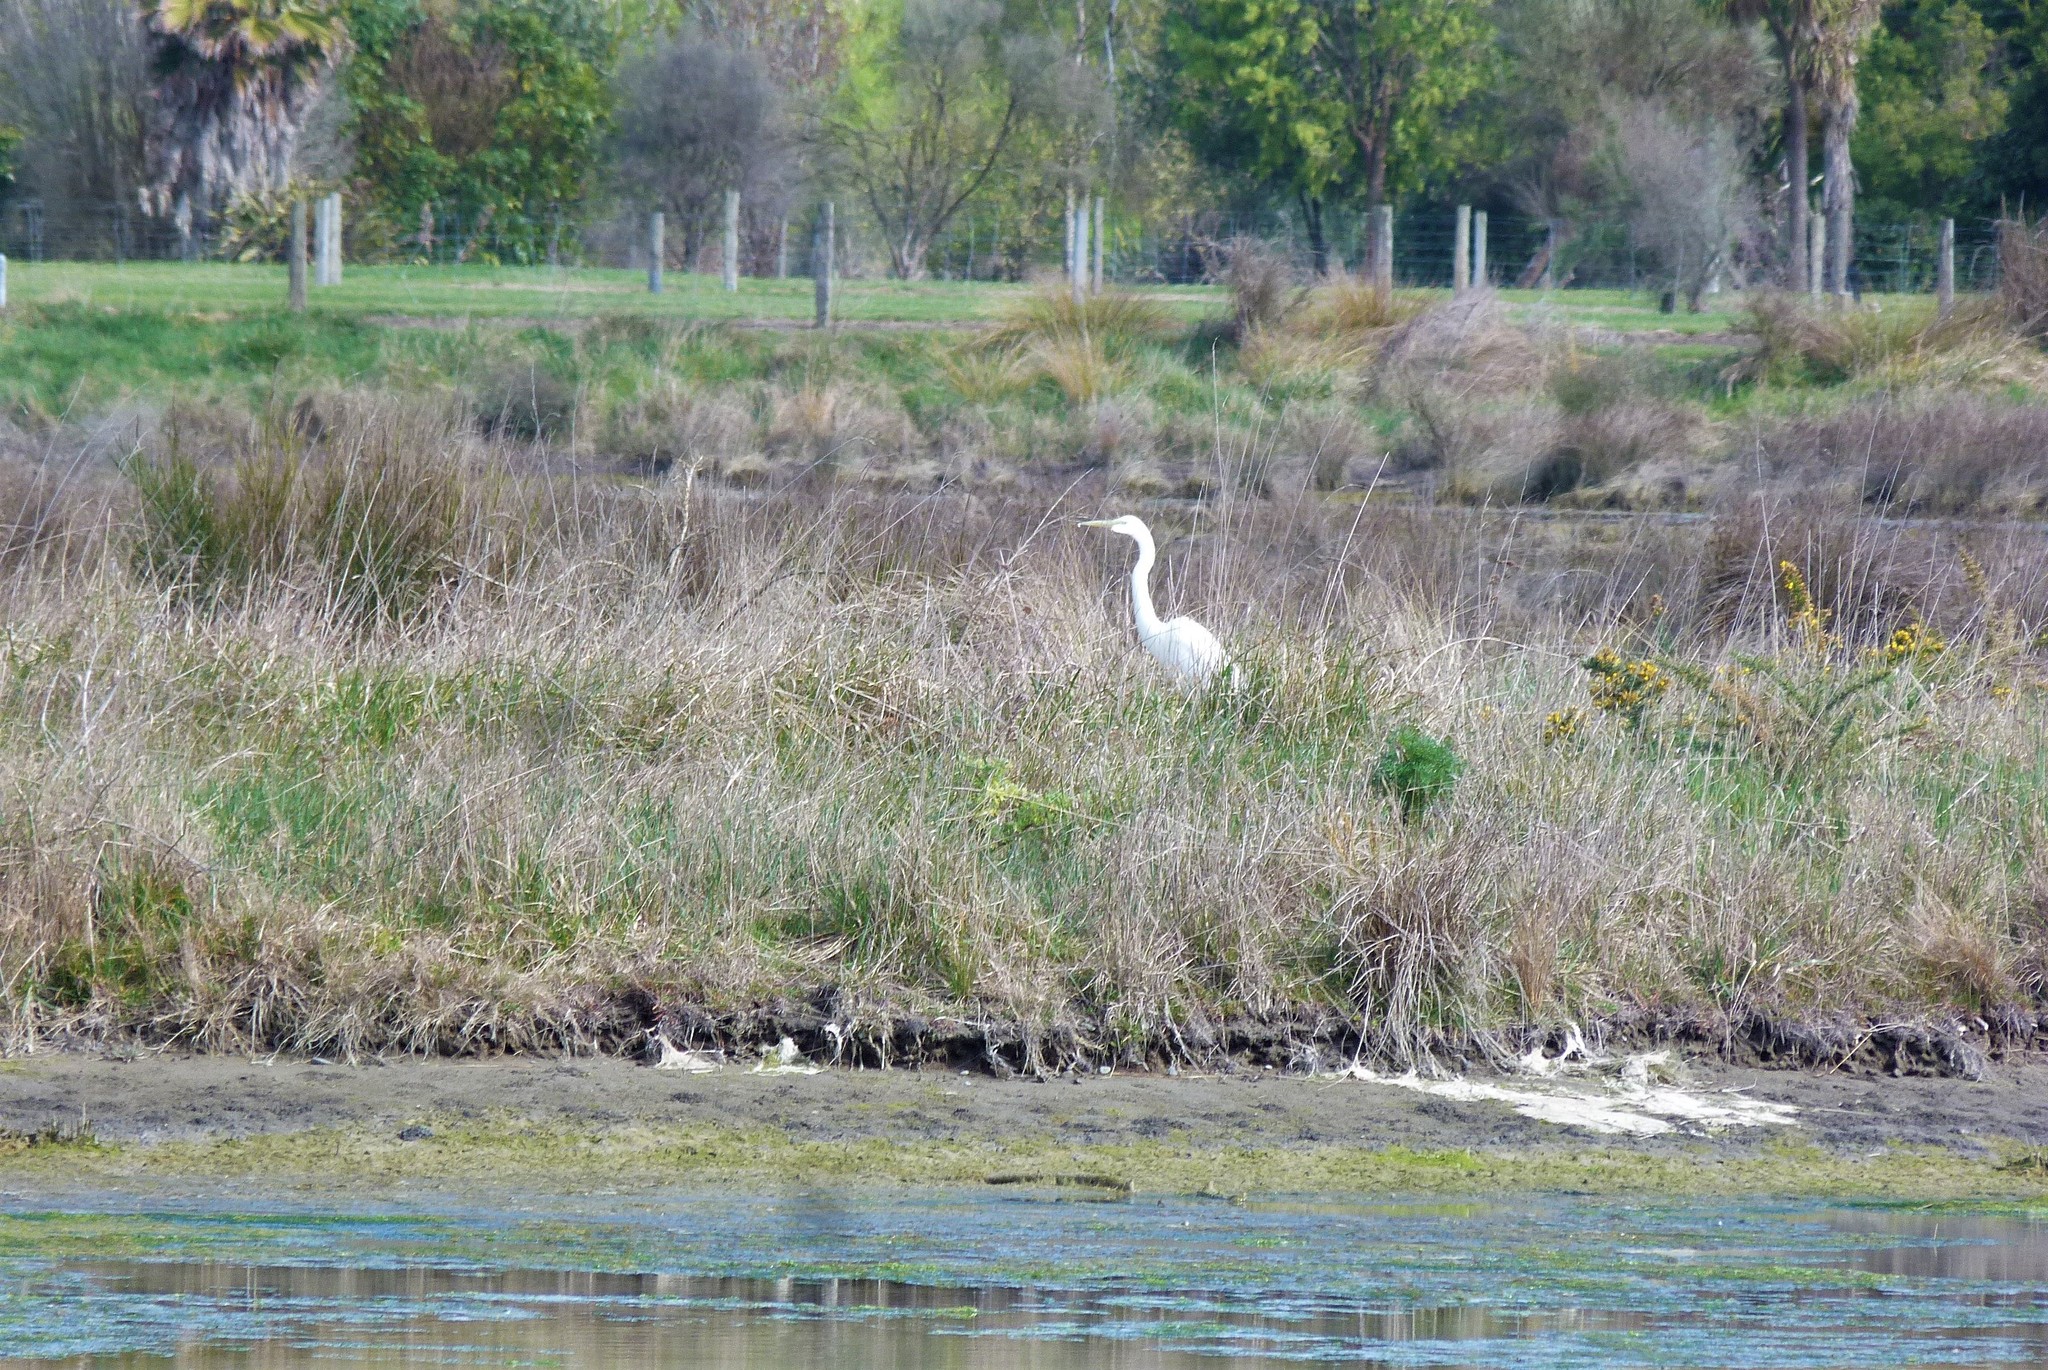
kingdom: Animalia
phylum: Chordata
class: Aves
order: Pelecaniformes
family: Ardeidae
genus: Ardea
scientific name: Ardea modesta
